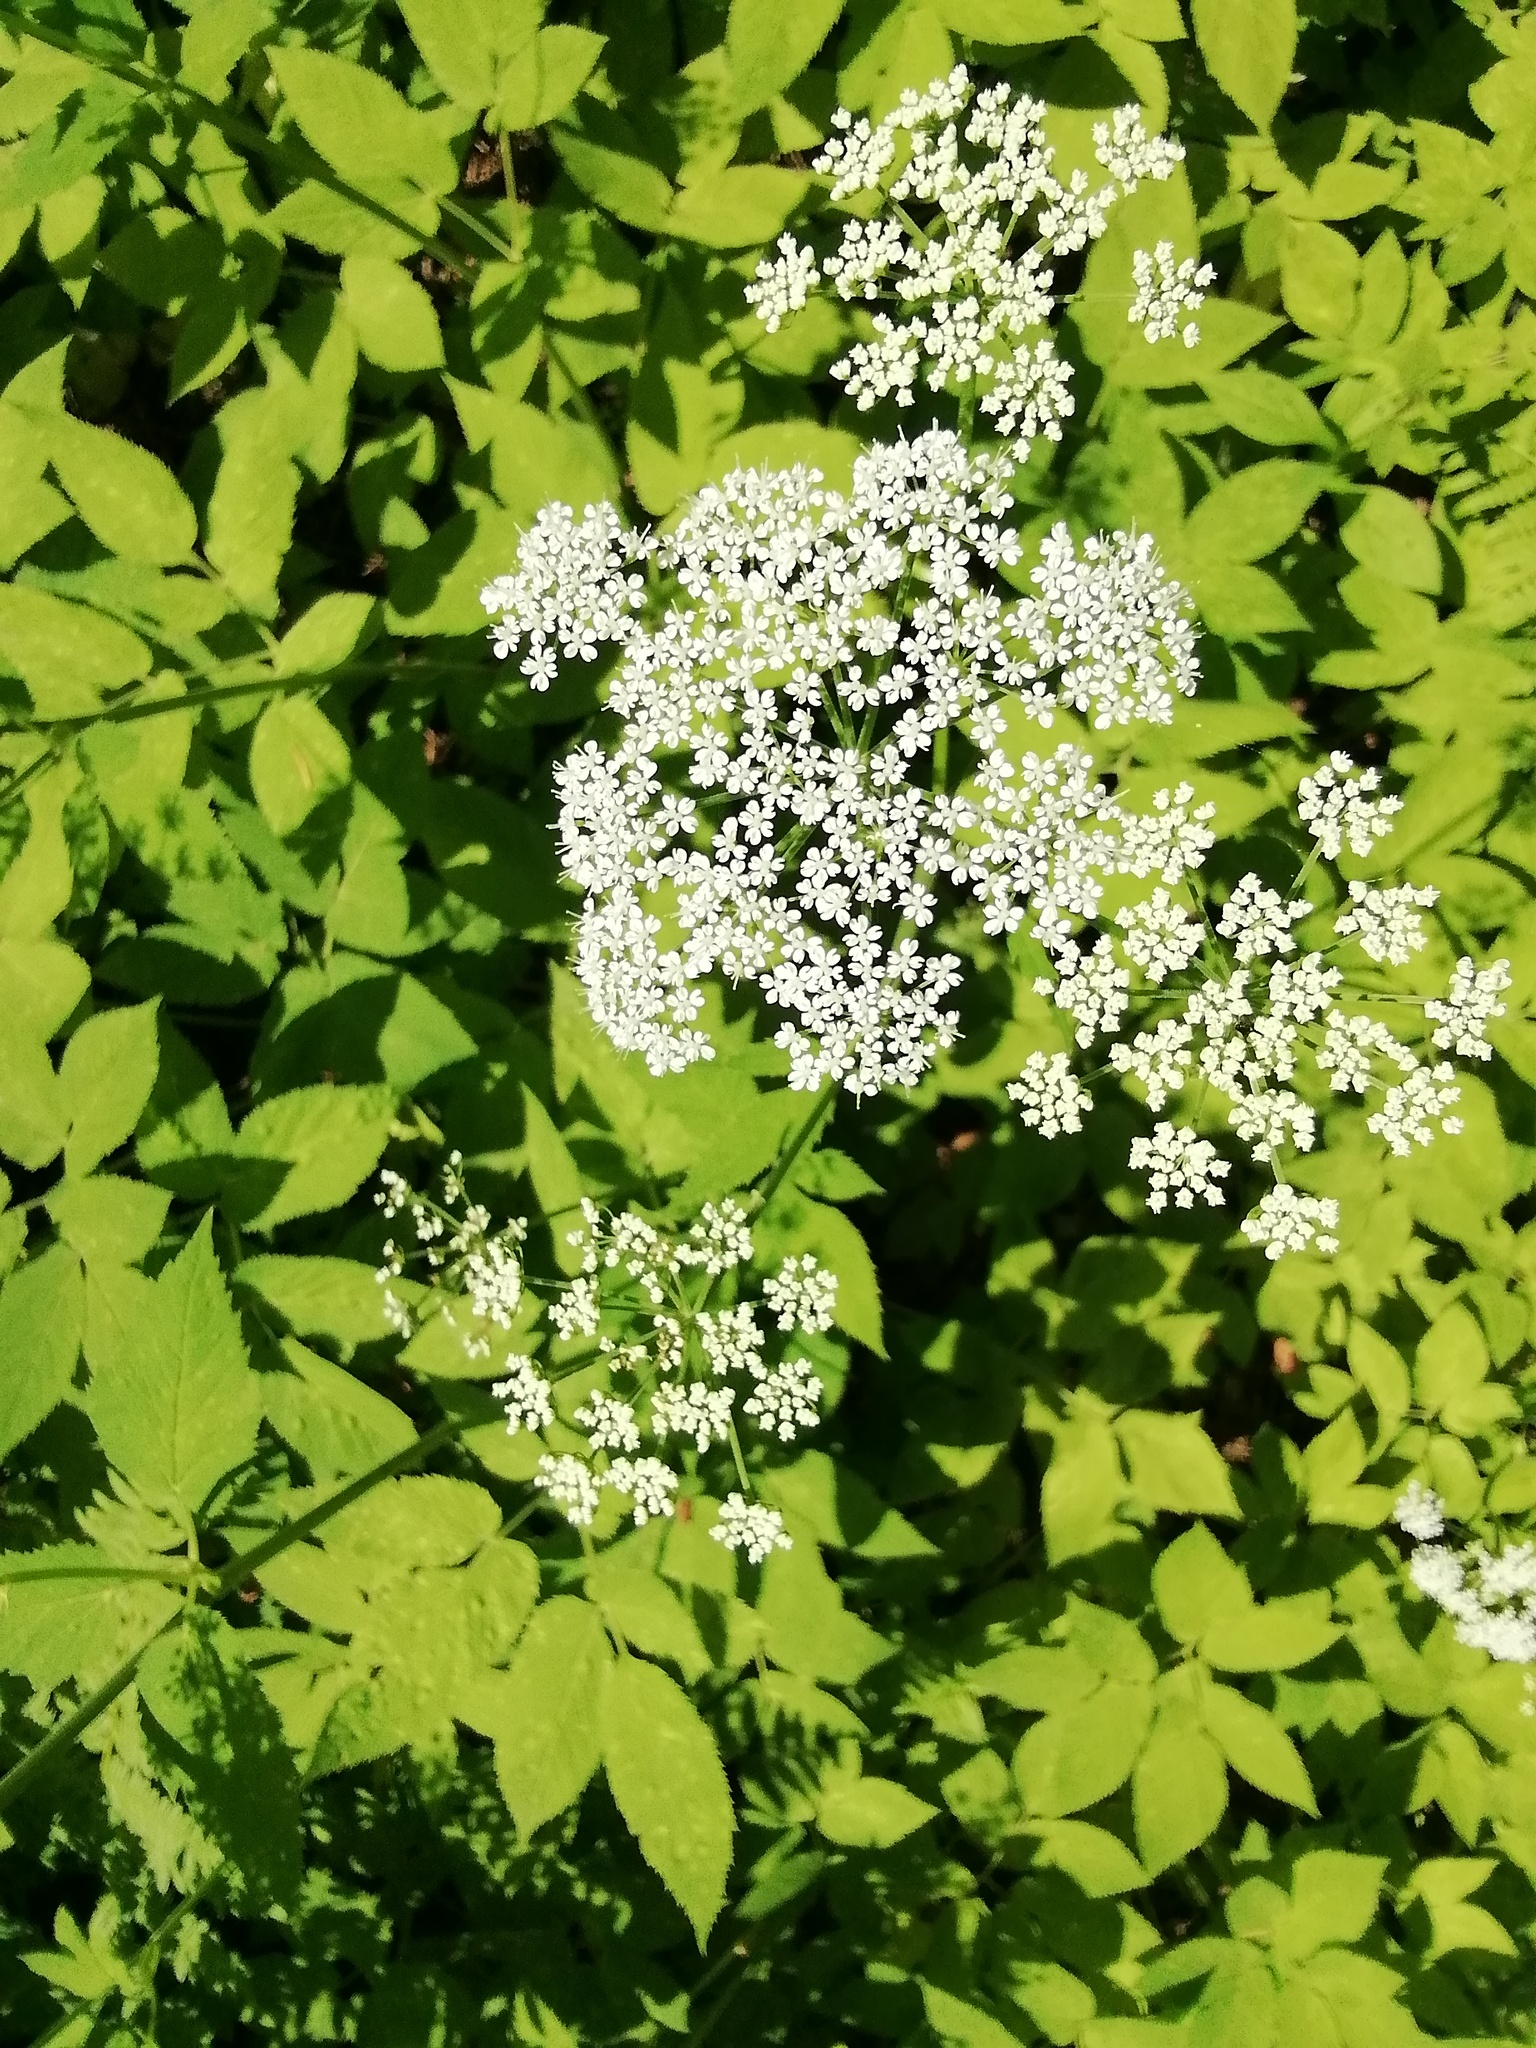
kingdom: Plantae
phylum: Tracheophyta
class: Magnoliopsida
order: Apiales
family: Apiaceae
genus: Aegopodium
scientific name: Aegopodium podagraria
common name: Ground-elder
